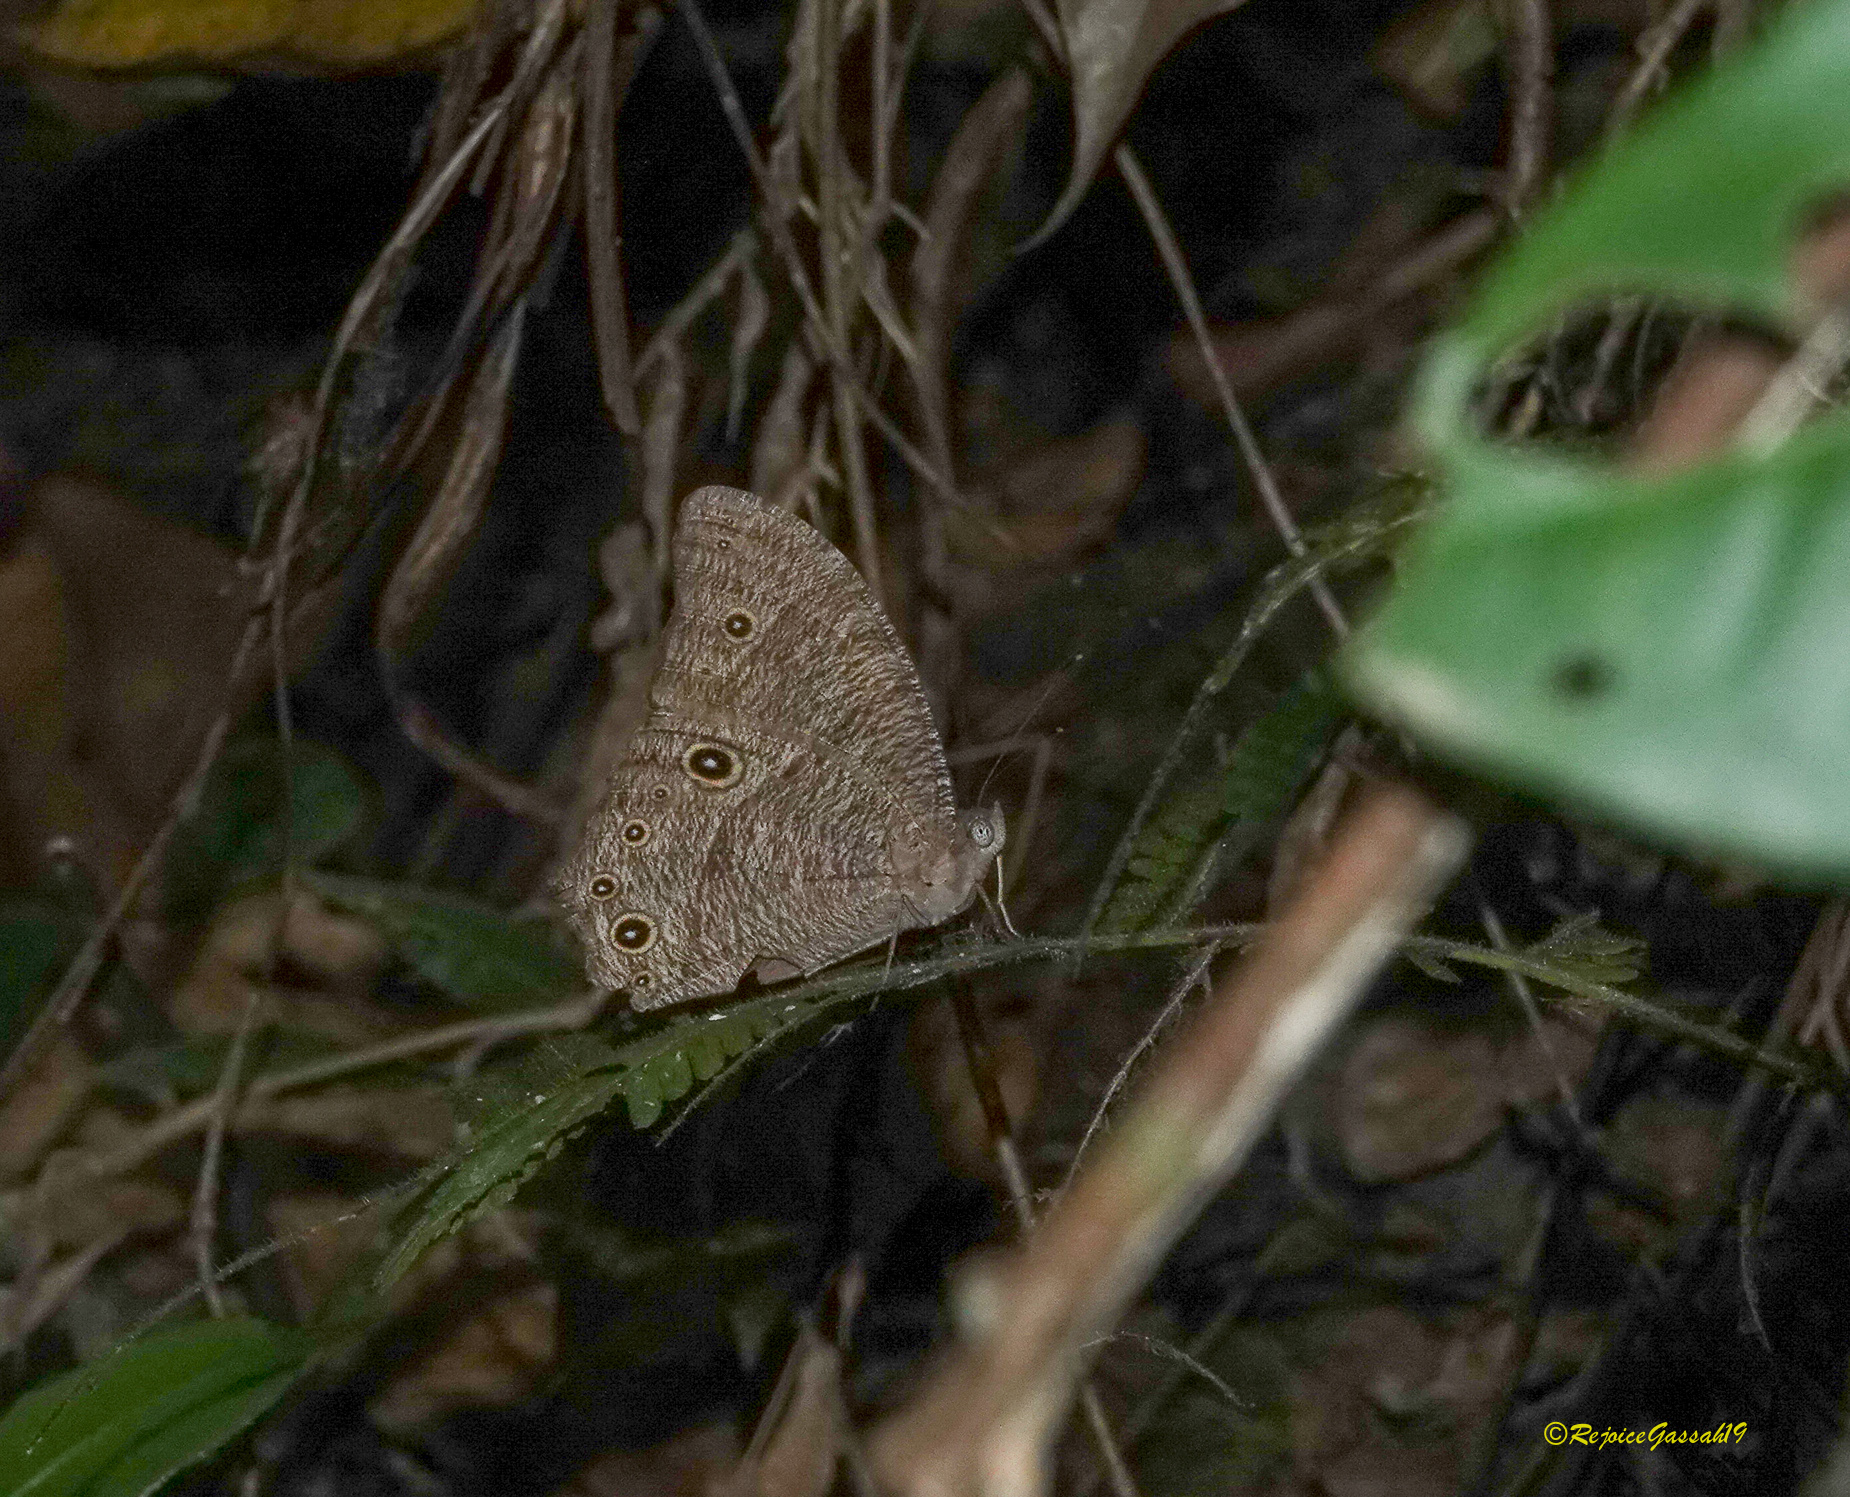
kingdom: Animalia
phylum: Arthropoda
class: Insecta
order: Lepidoptera
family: Nymphalidae
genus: Melanitis
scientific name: Melanitis leda
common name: Twilight brown
